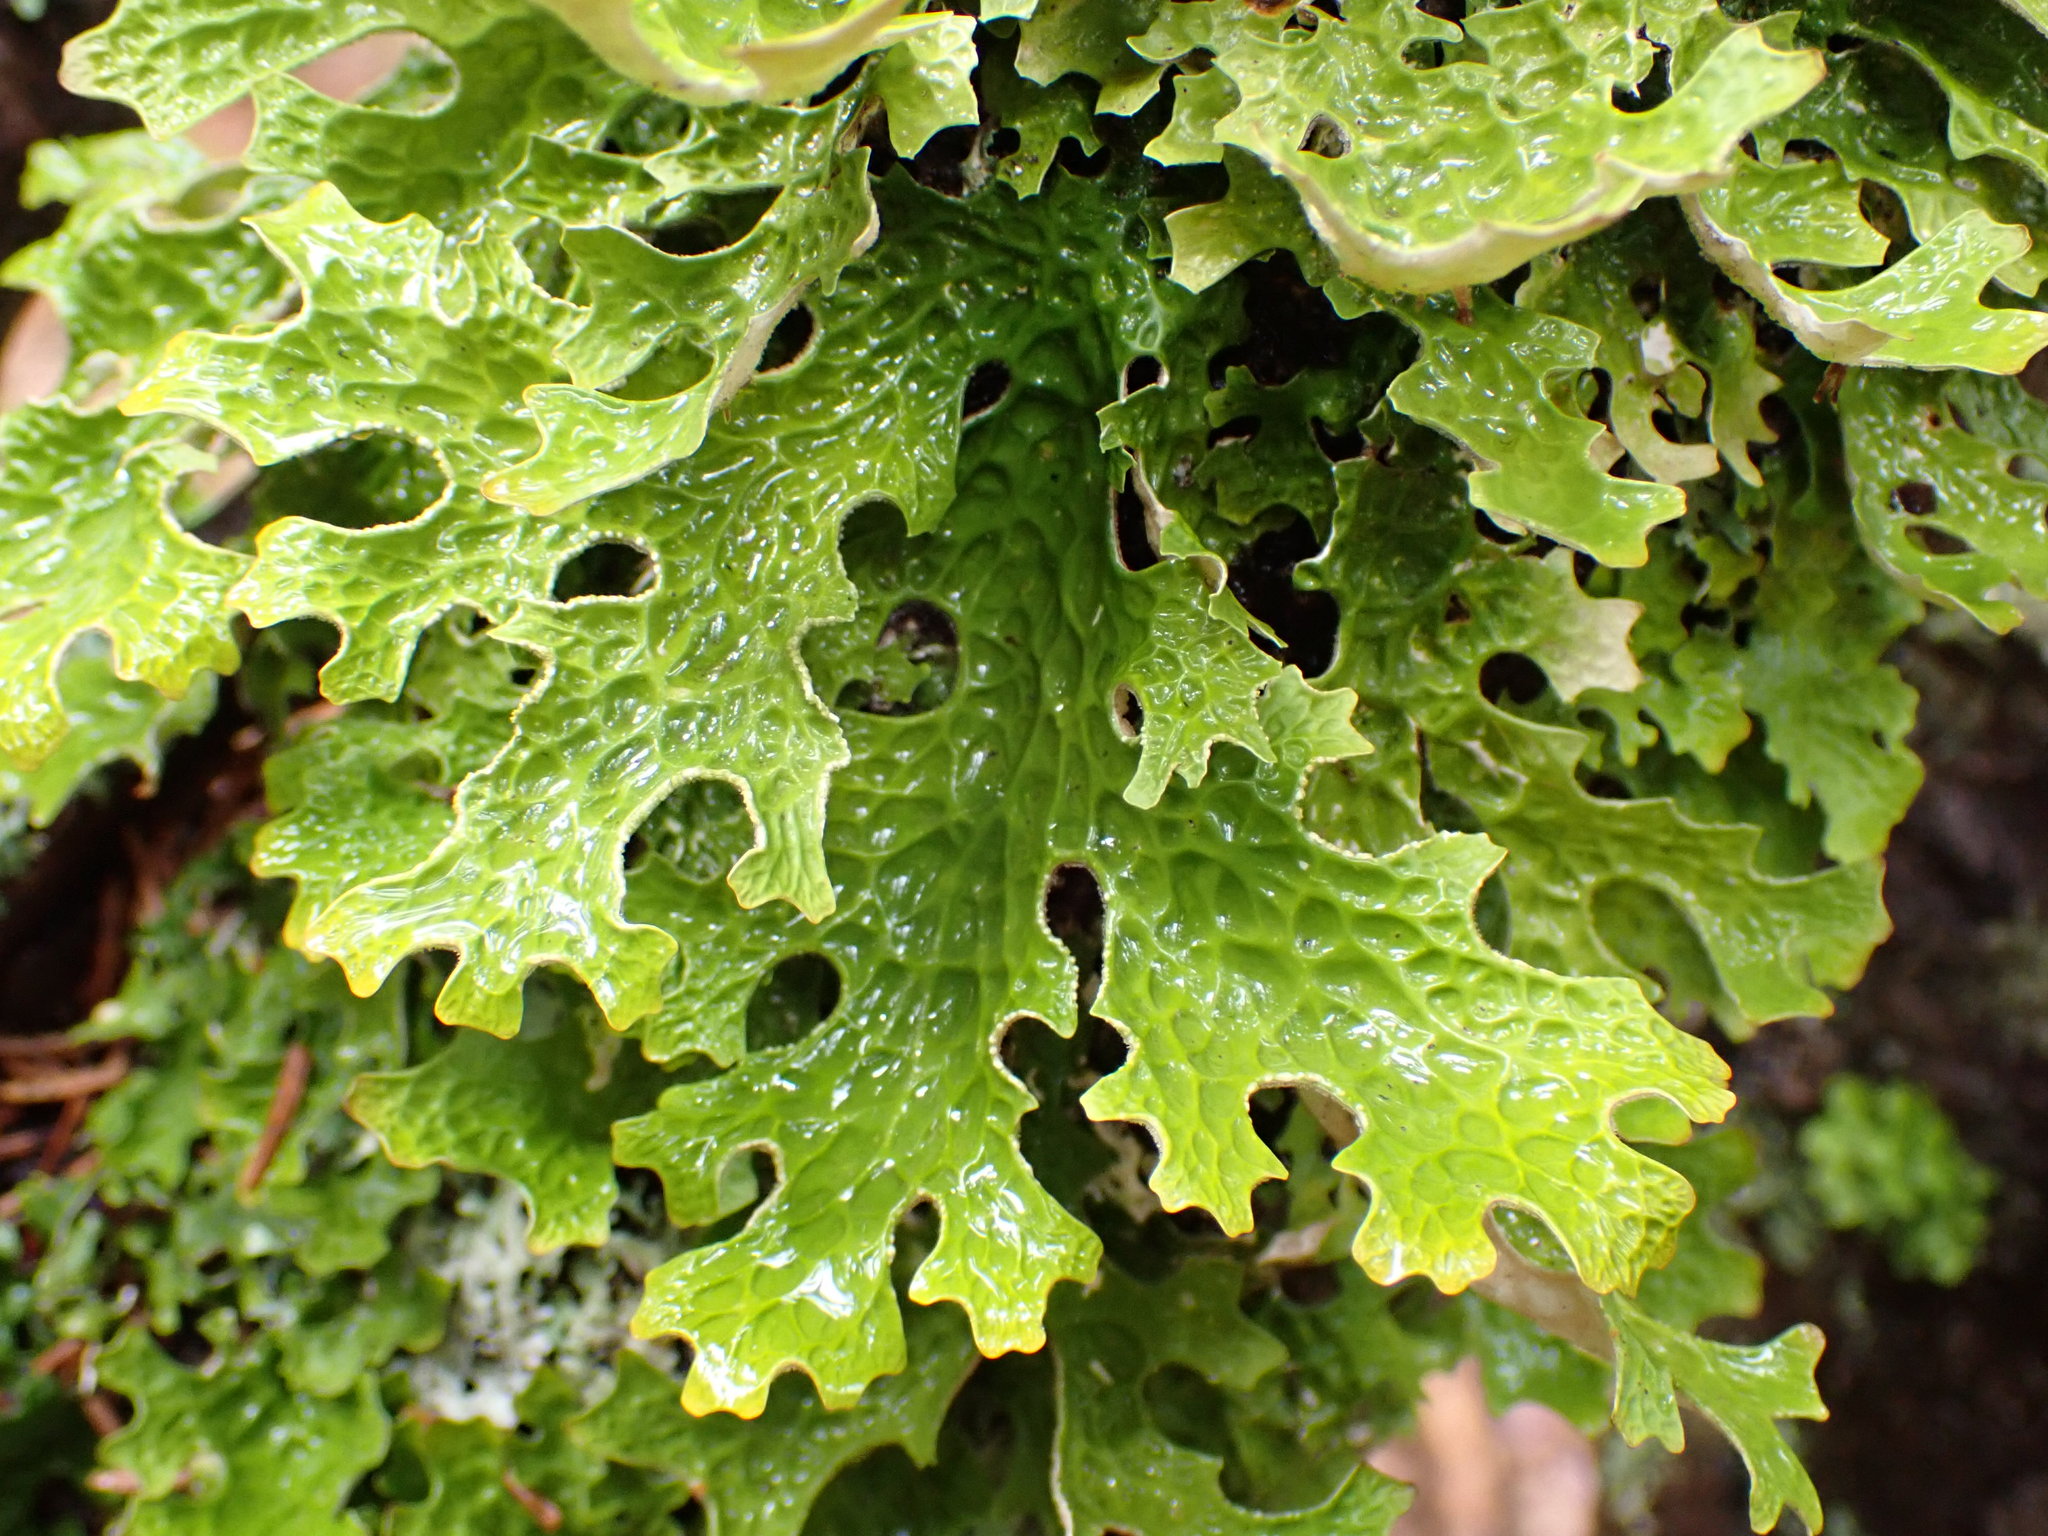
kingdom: Fungi
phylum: Ascomycota
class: Lecanoromycetes
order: Peltigerales
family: Lobariaceae
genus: Lobaria
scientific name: Lobaria pulmonaria
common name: Lungwort
